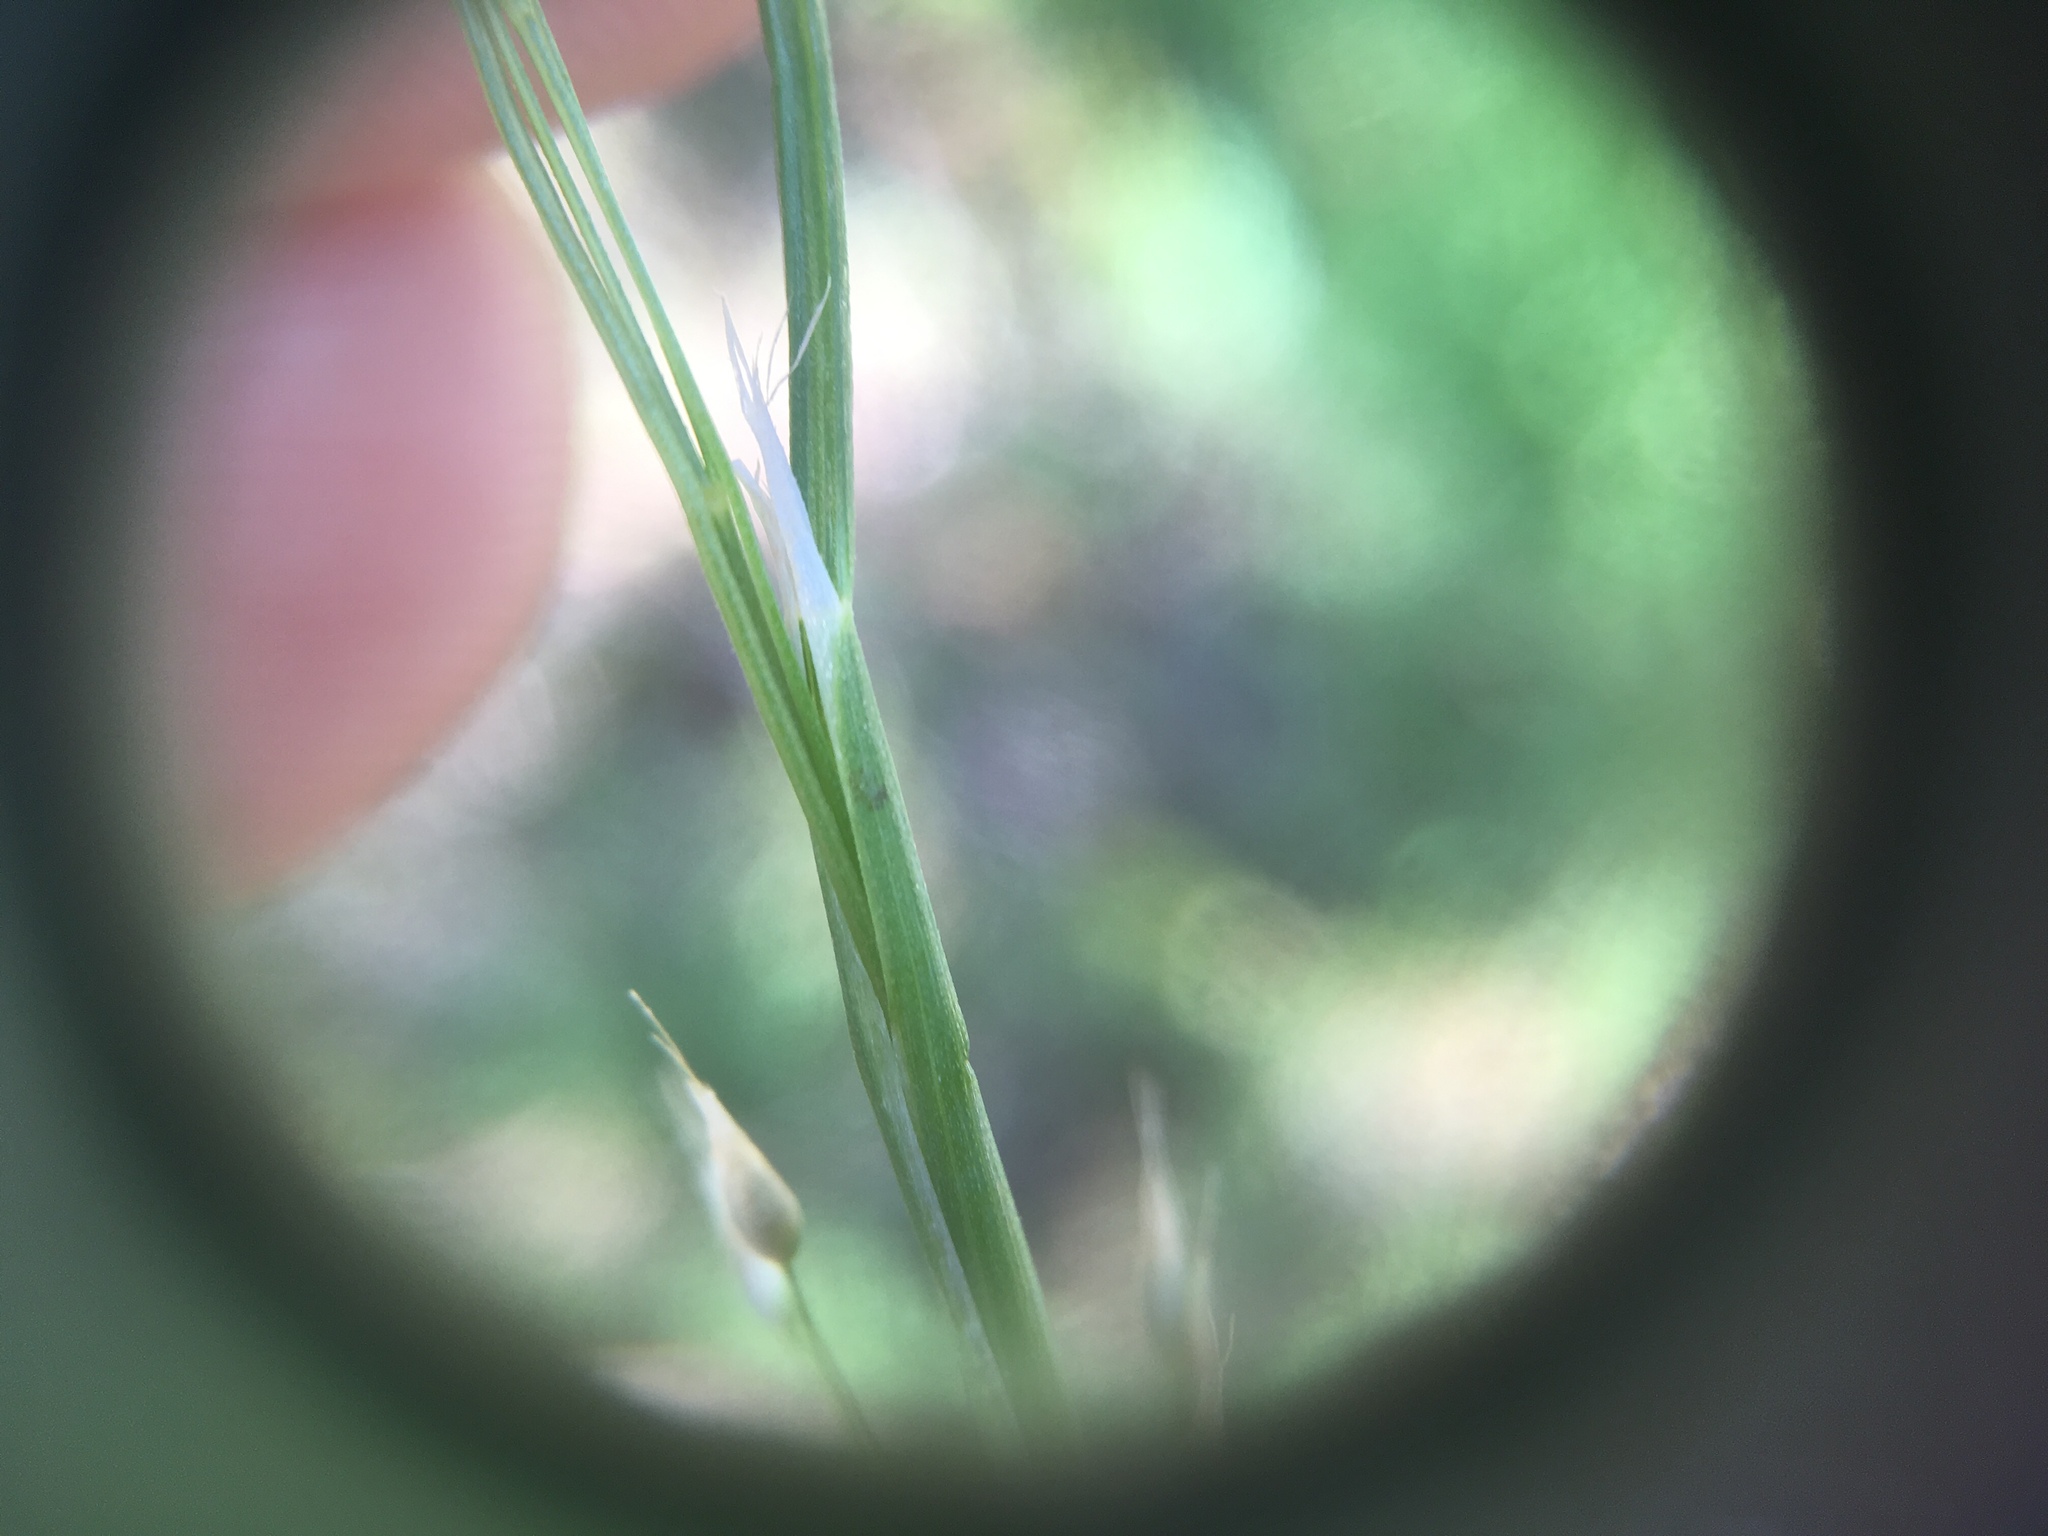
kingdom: Plantae
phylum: Tracheophyta
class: Liliopsida
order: Poales
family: Poaceae
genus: Aira
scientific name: Aira caryophyllea
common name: Silver hairgrass
